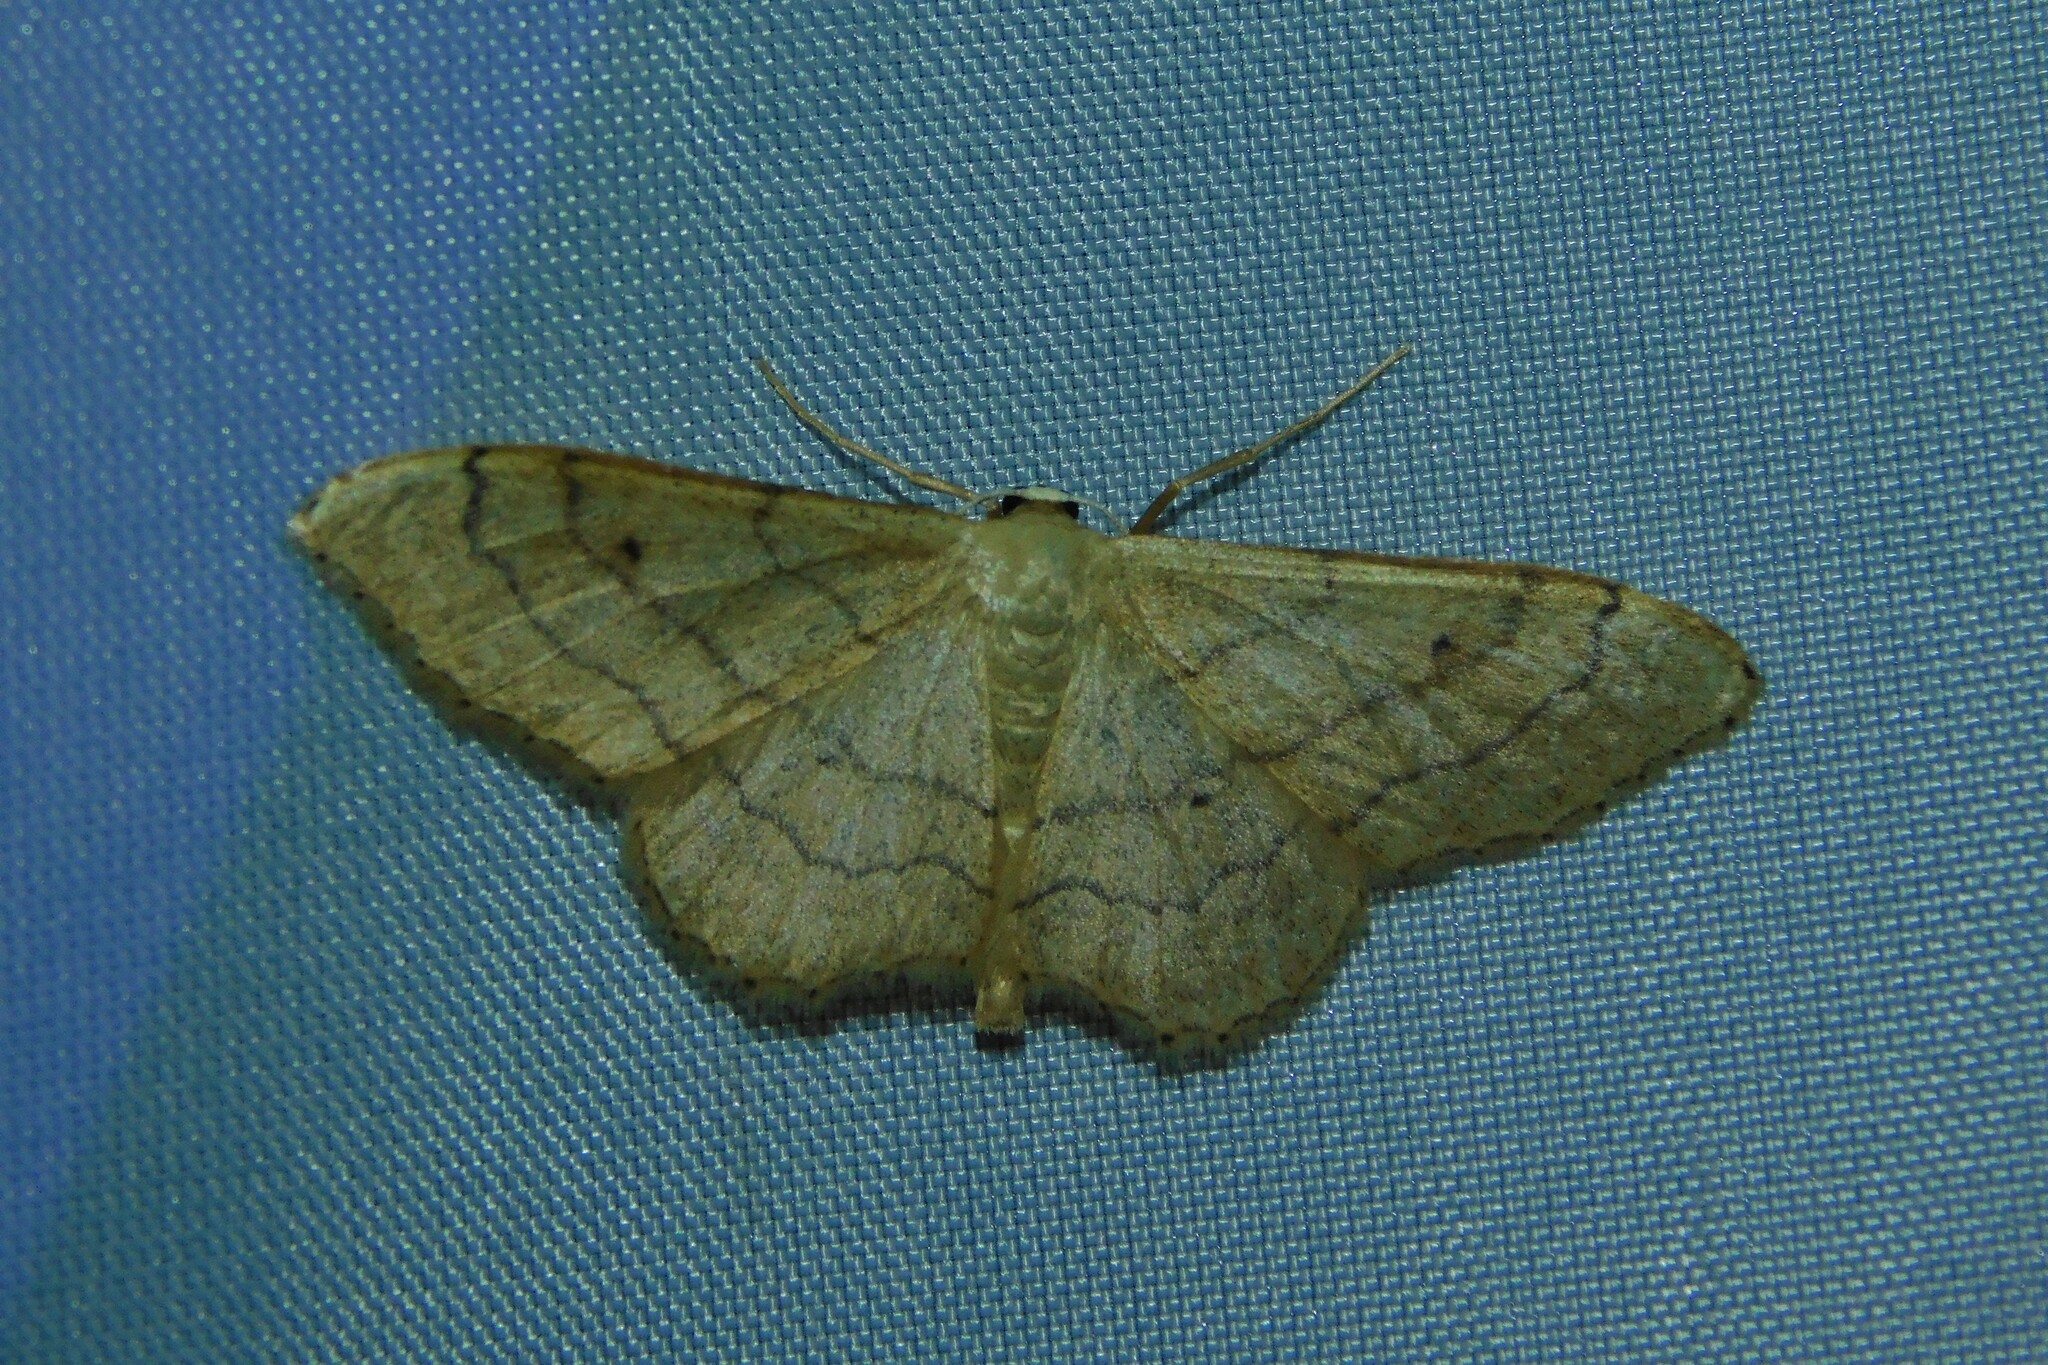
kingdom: Animalia
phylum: Arthropoda
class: Insecta
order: Lepidoptera
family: Geometridae
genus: Idaea
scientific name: Idaea aversata
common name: Riband wave
